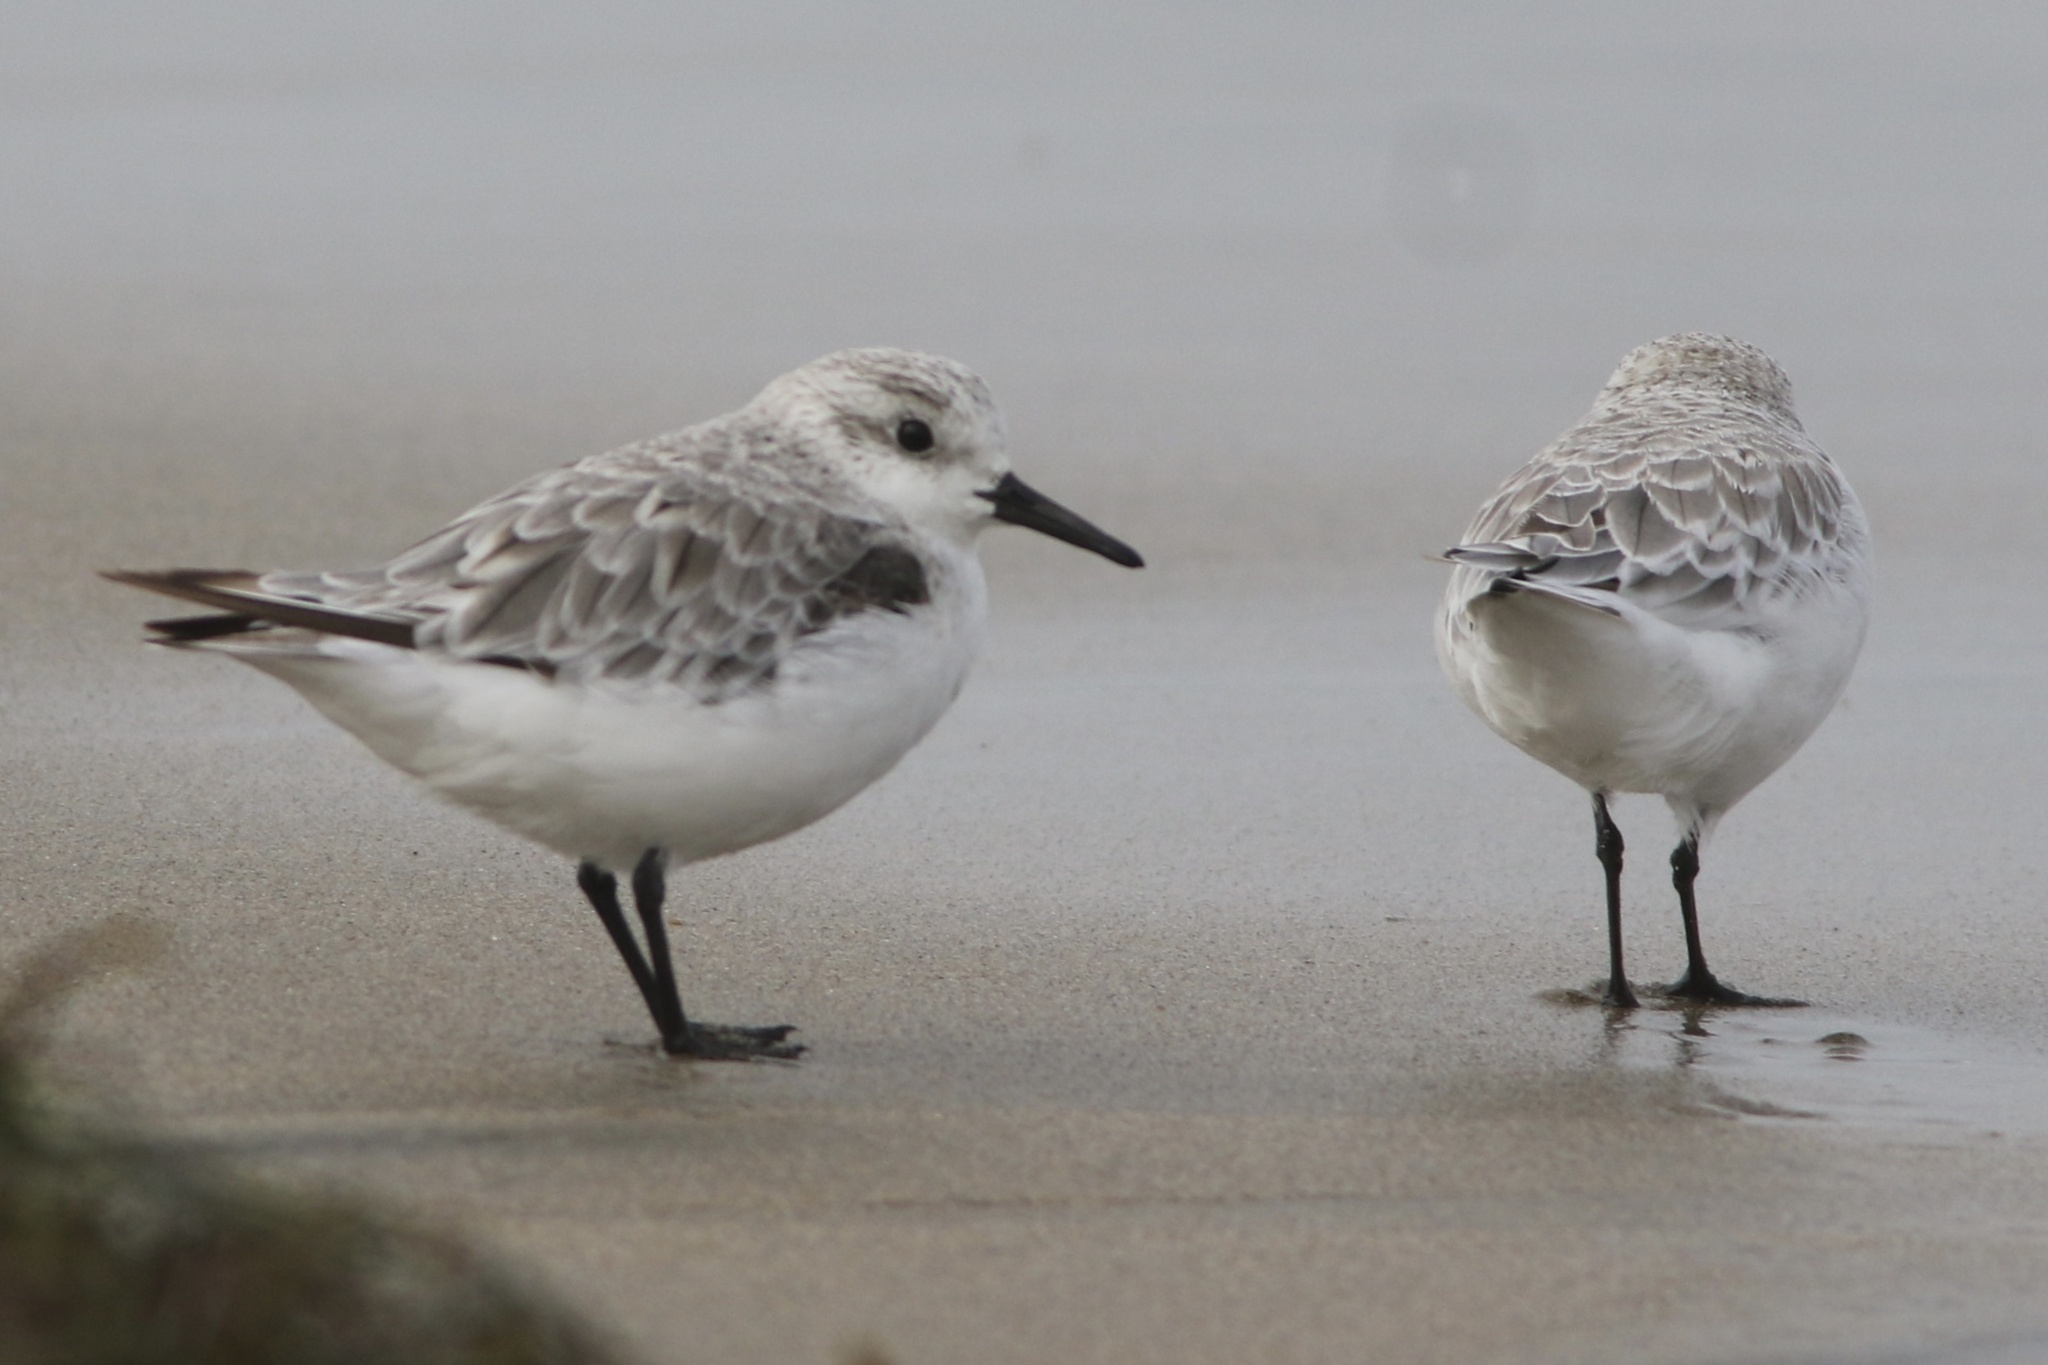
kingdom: Animalia
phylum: Chordata
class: Aves
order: Charadriiformes
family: Scolopacidae
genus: Calidris
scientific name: Calidris alba
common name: Sanderling
